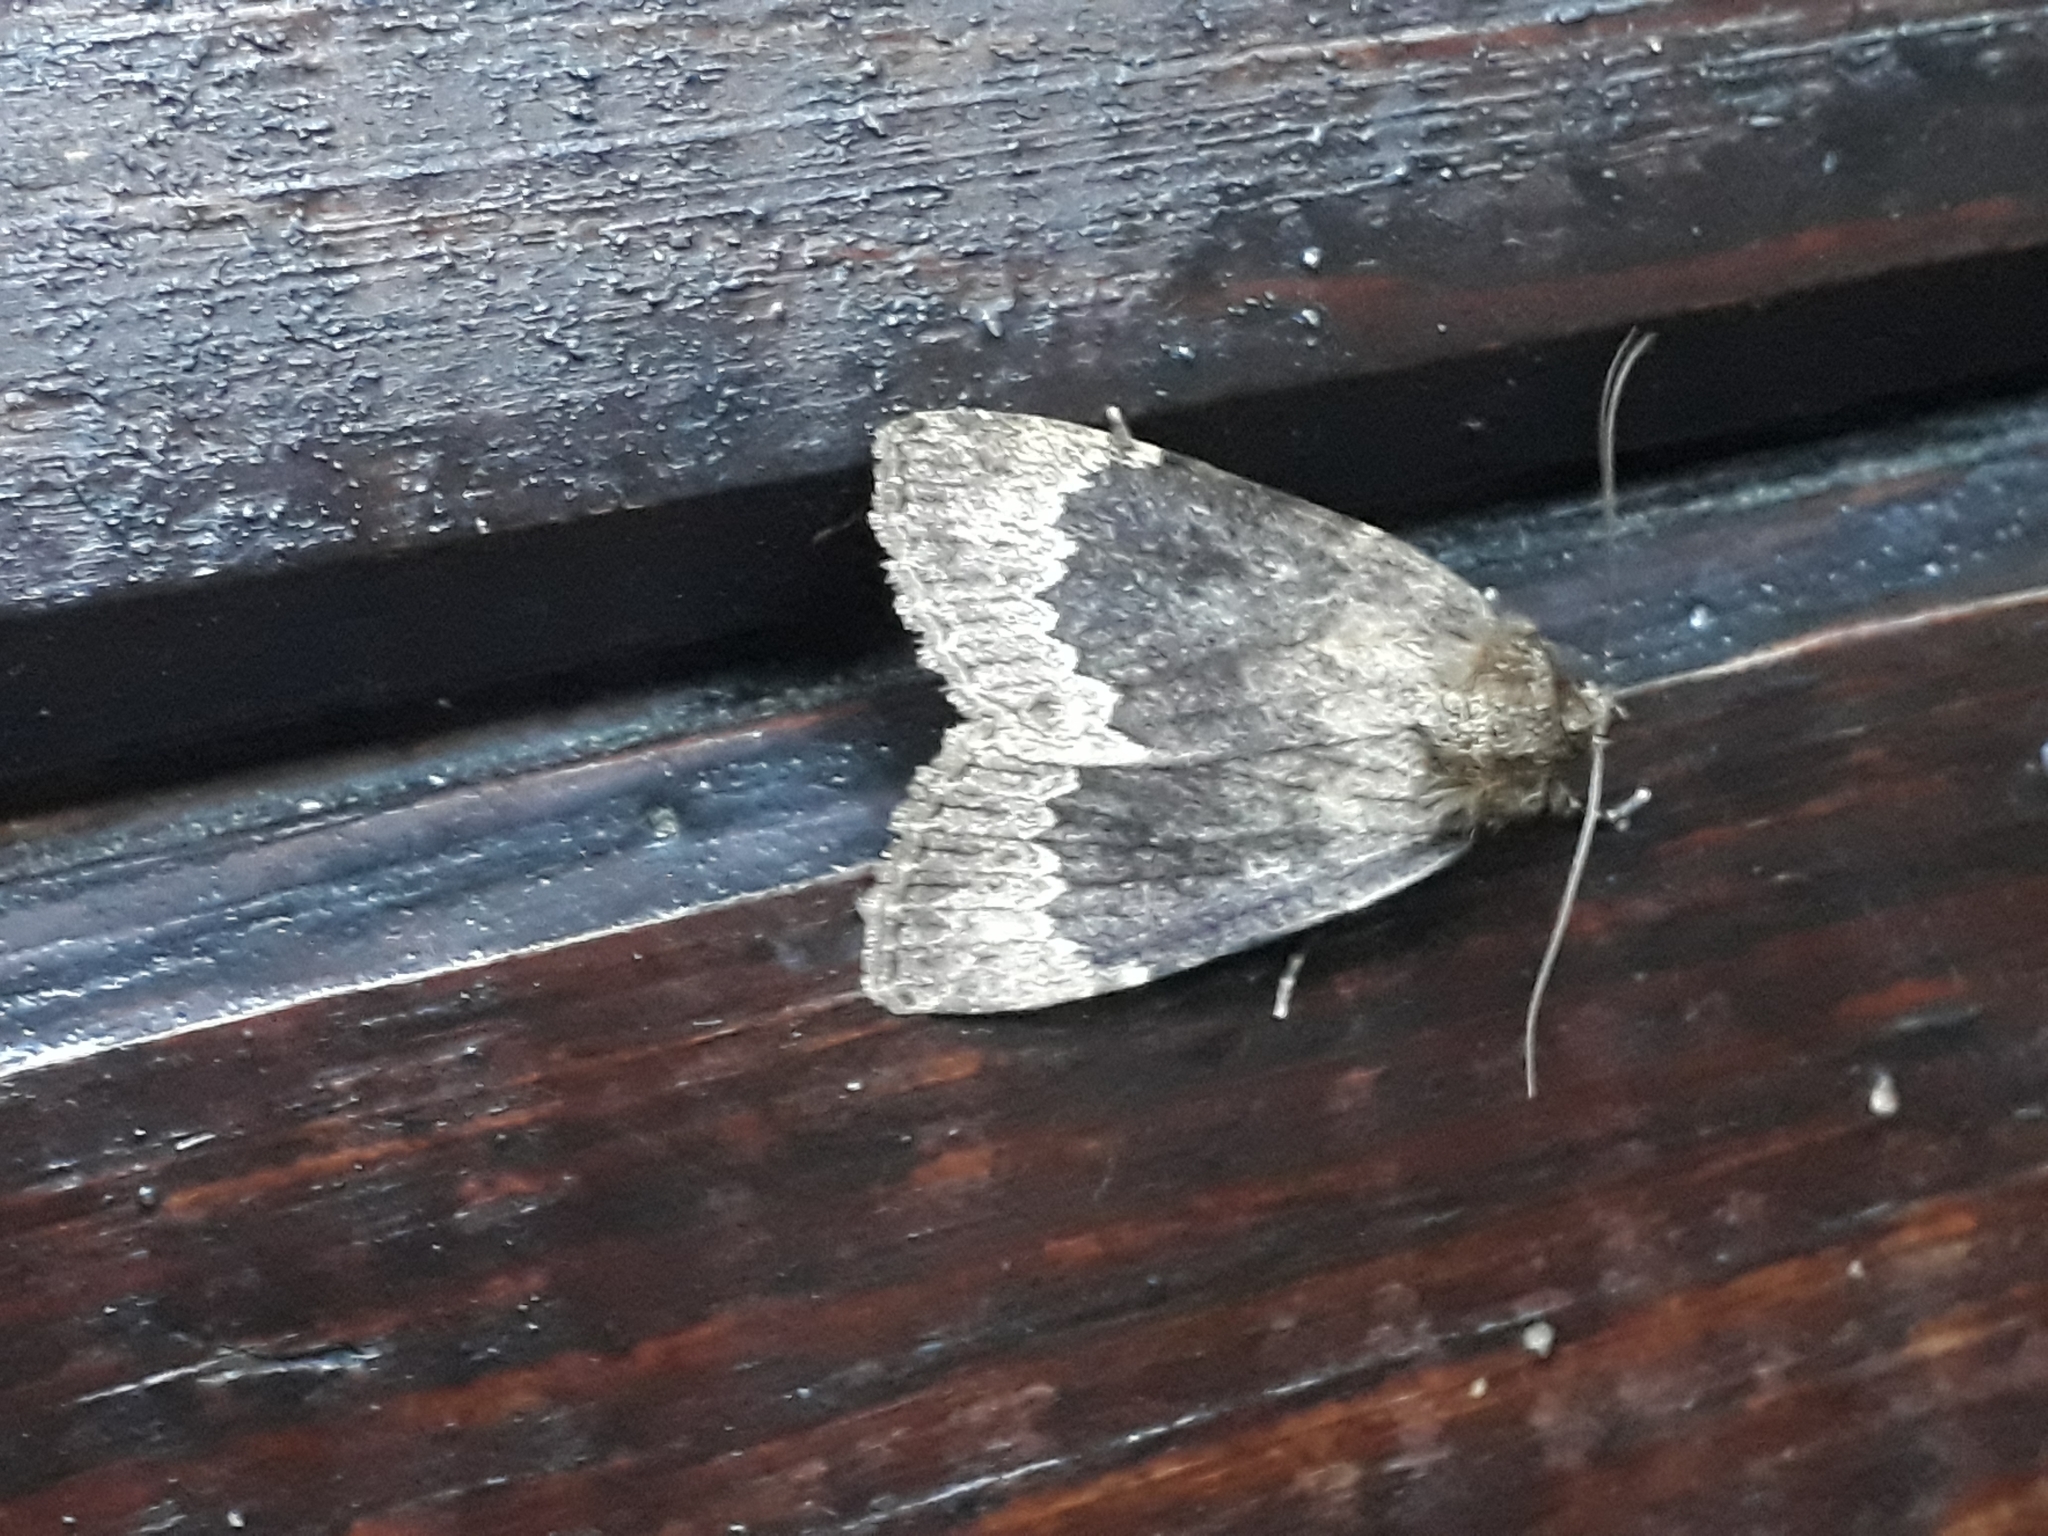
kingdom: Animalia
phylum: Arthropoda
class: Insecta
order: Lepidoptera
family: Noctuidae
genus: Amphipyra
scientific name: Amphipyra perflua
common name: Larger pale-tipped black moth
